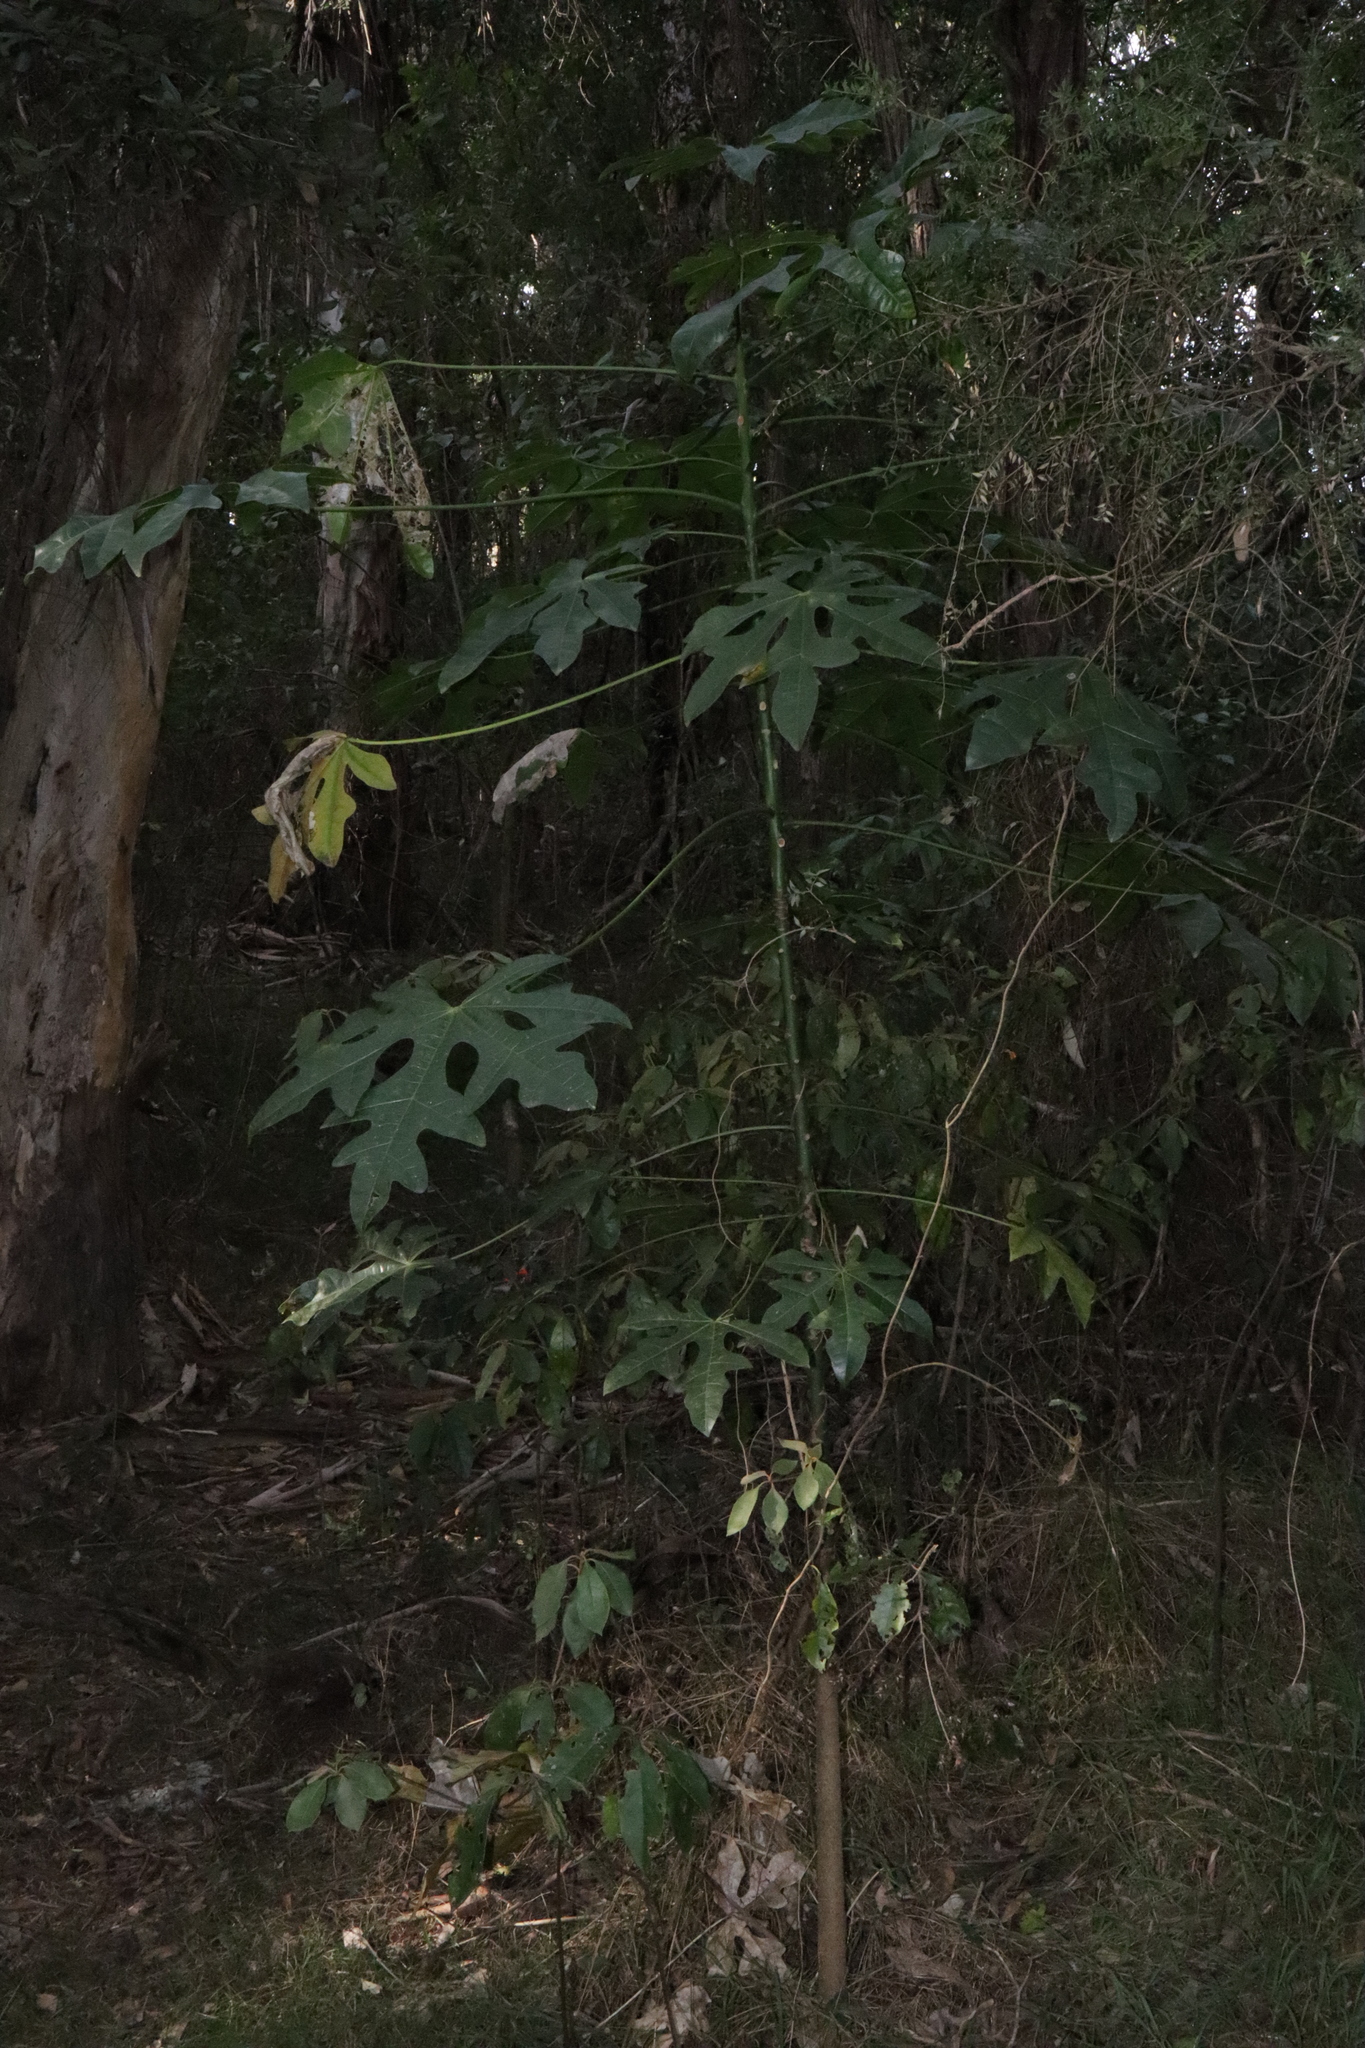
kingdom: Plantae
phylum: Tracheophyta
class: Magnoliopsida
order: Malvales
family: Malvaceae
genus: Brachychiton
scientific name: Brachychiton acerifolius
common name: Illawarra flame tree
